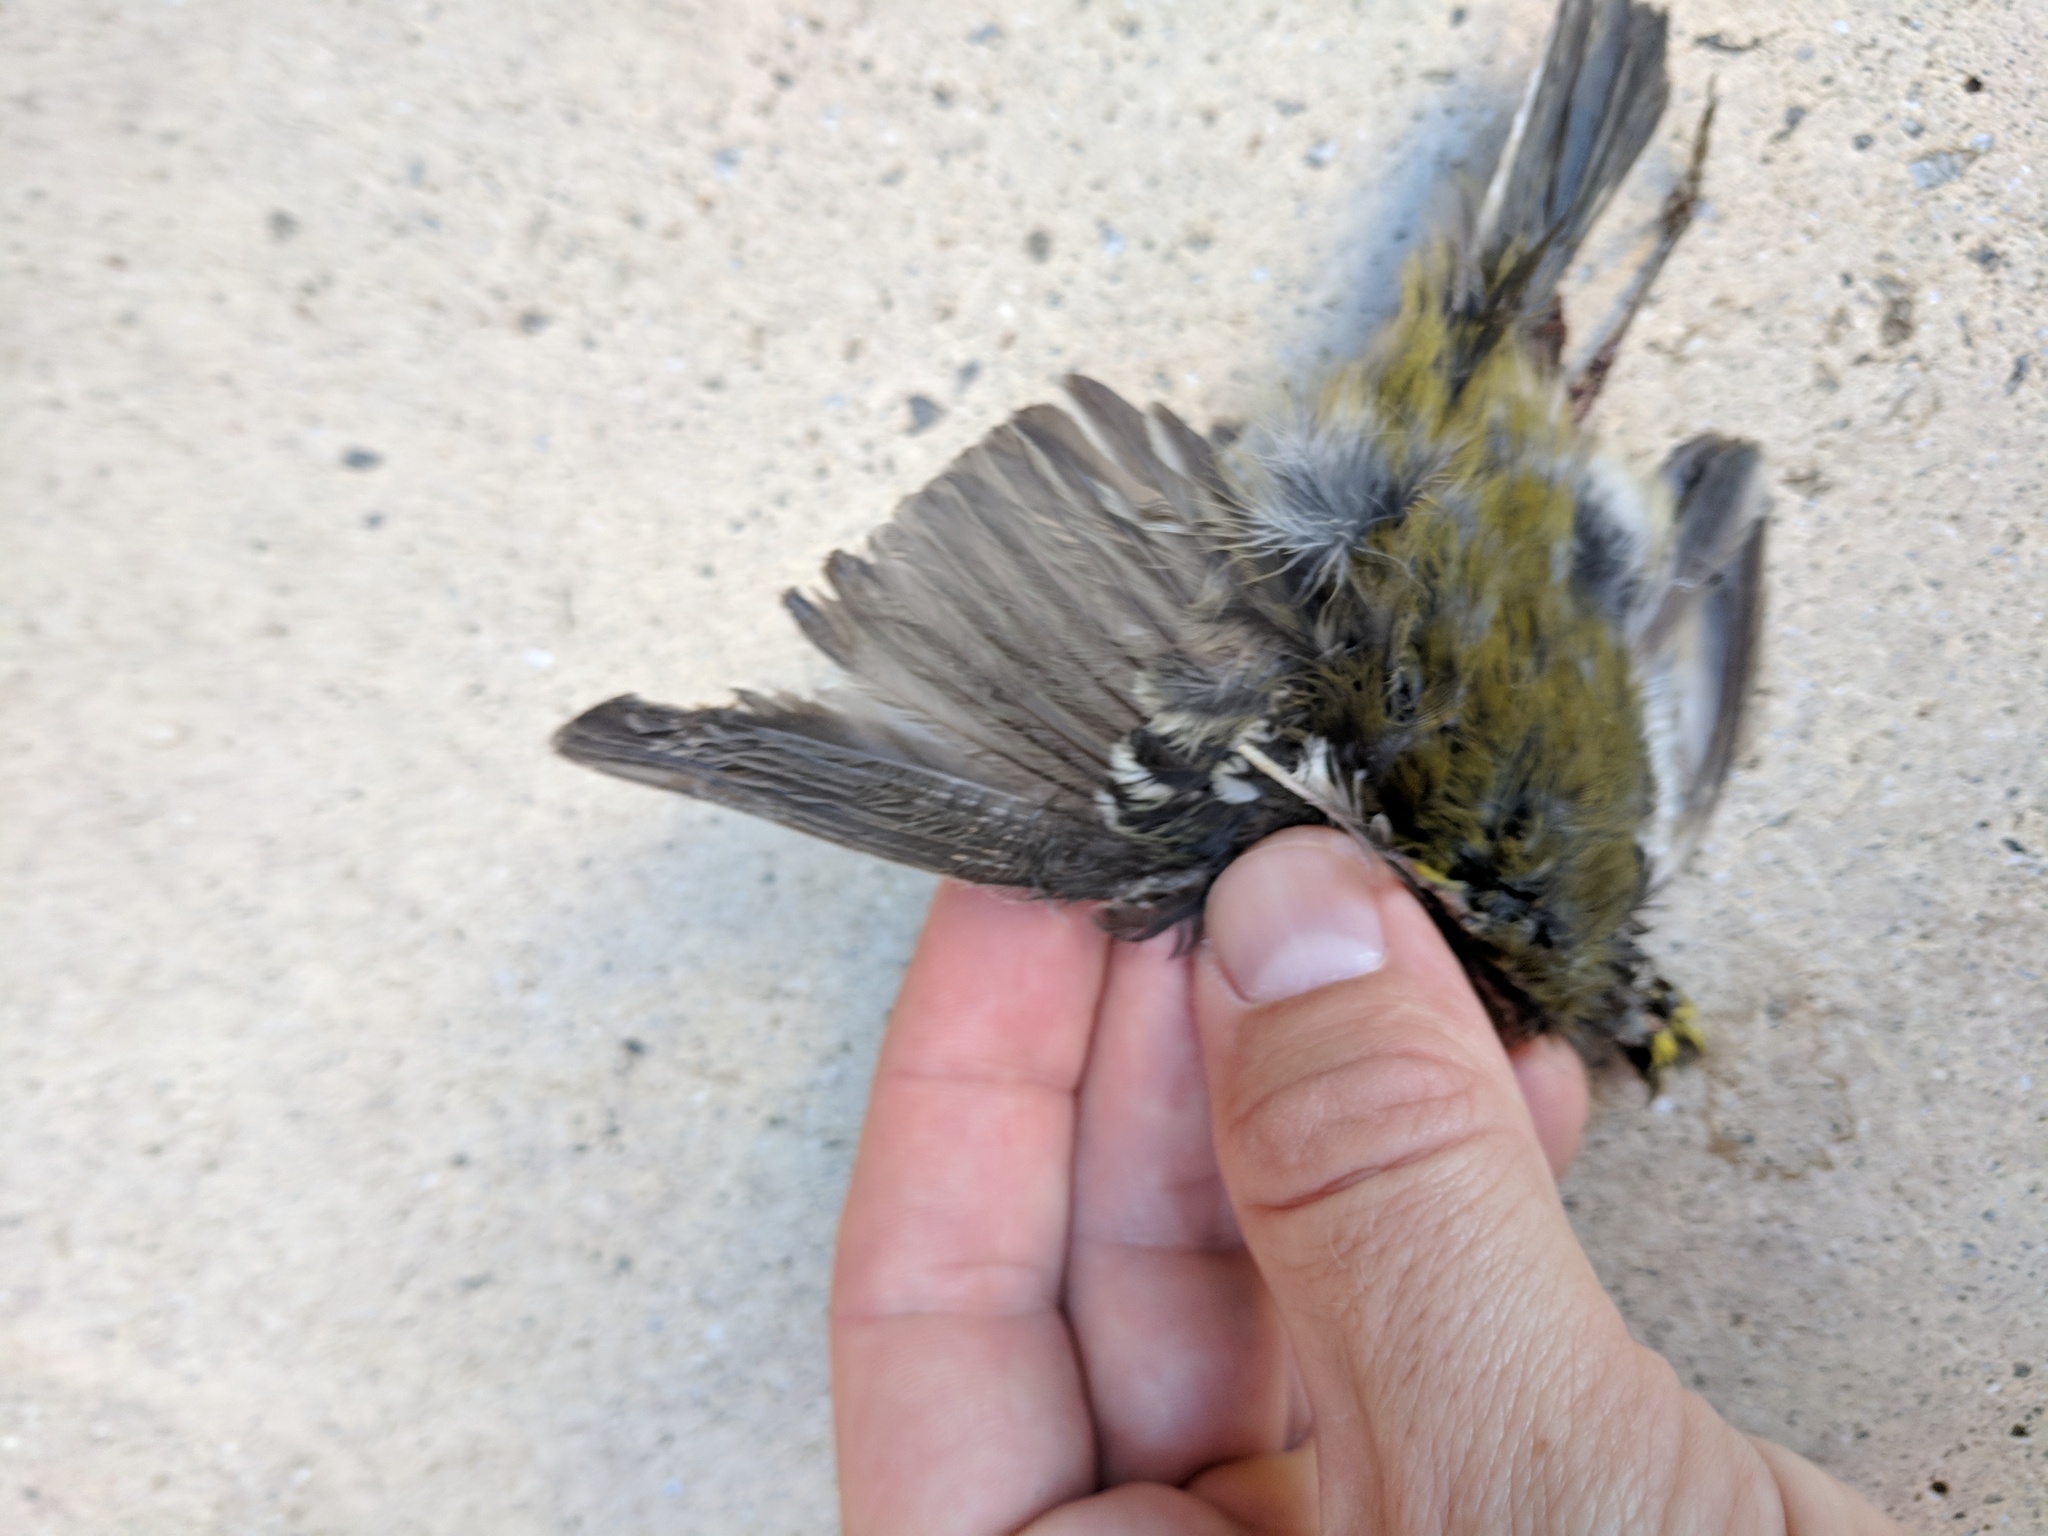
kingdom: Animalia
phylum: Chordata
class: Aves
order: Passeriformes
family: Parulidae
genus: Setophaga
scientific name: Setophaga townsendi
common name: Townsend's warbler
